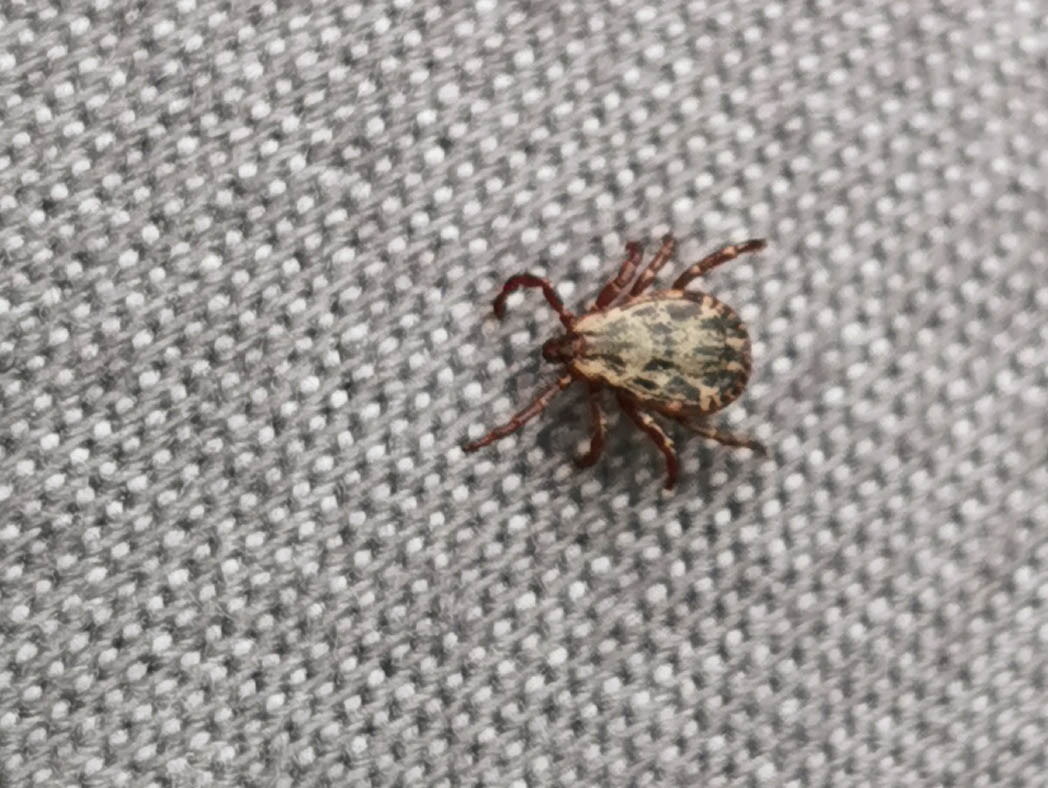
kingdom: Animalia
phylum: Arthropoda
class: Arachnida
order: Ixodida
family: Ixodidae
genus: Dermacentor
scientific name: Dermacentor andersoni
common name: Rocky mountain wood tick
